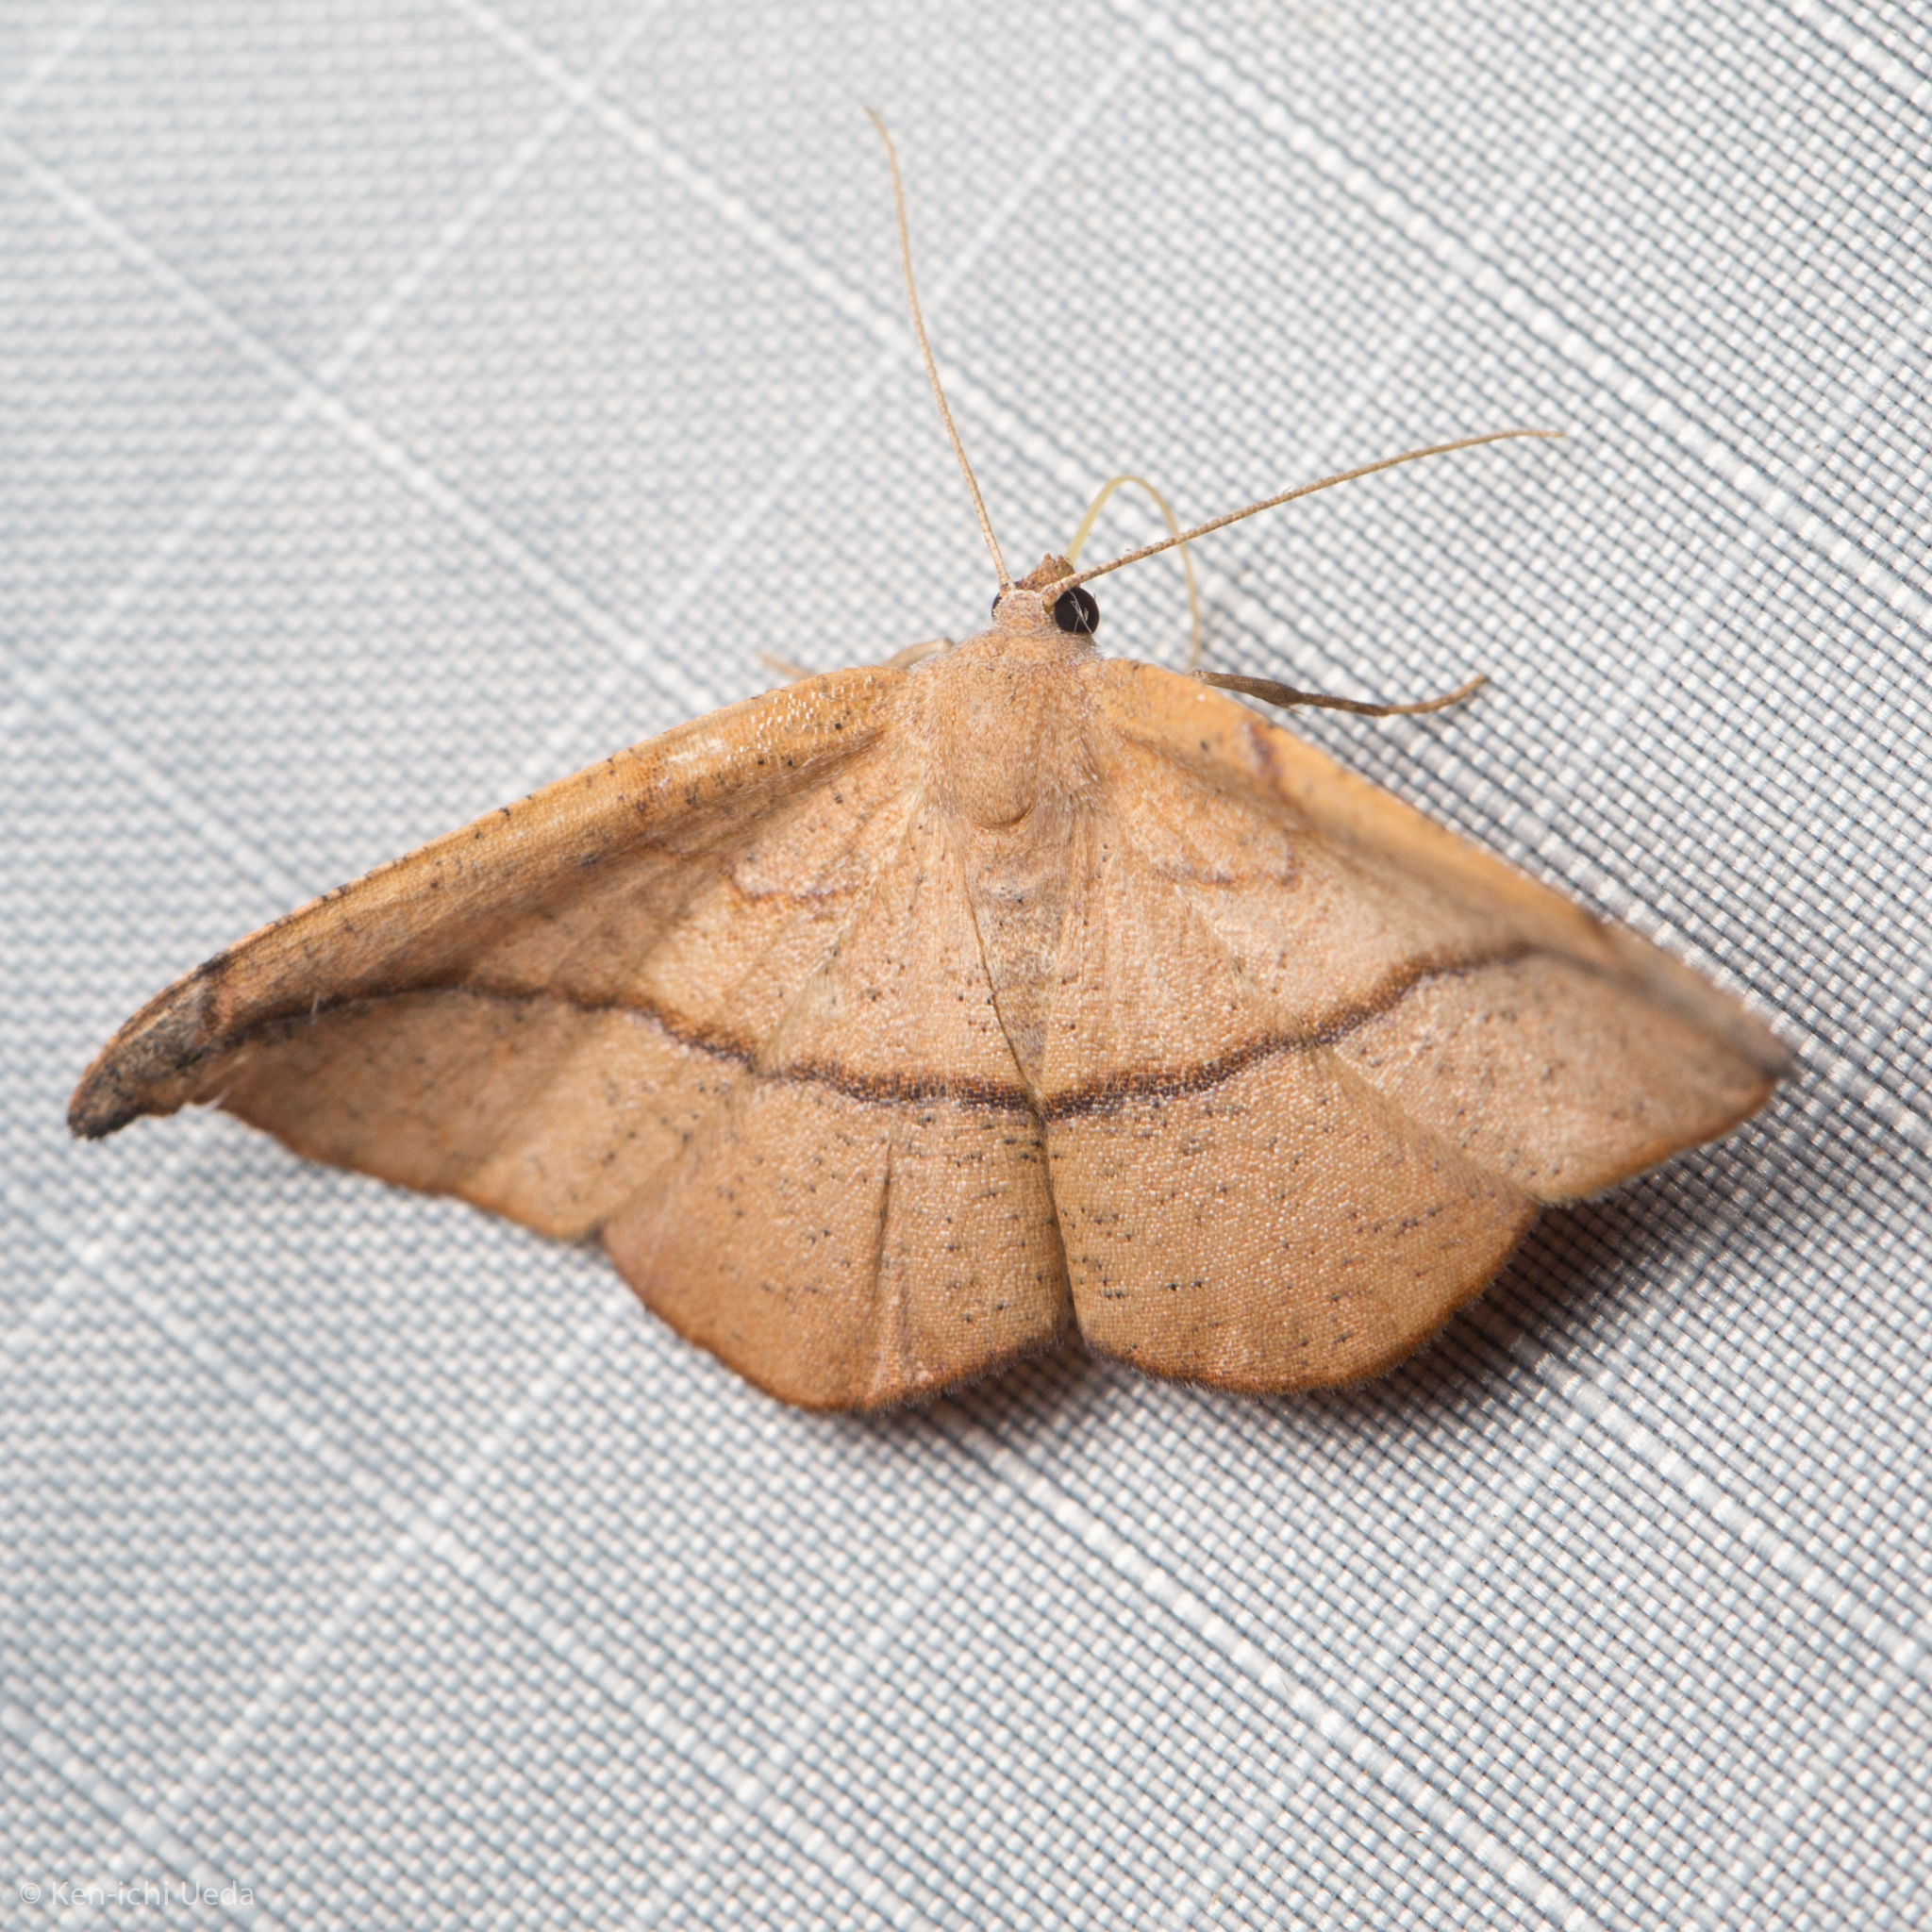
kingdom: Animalia
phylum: Arthropoda
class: Insecta
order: Lepidoptera
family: Geometridae
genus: Patalene
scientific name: Patalene olyzonaria
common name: Juniper geometer moth
